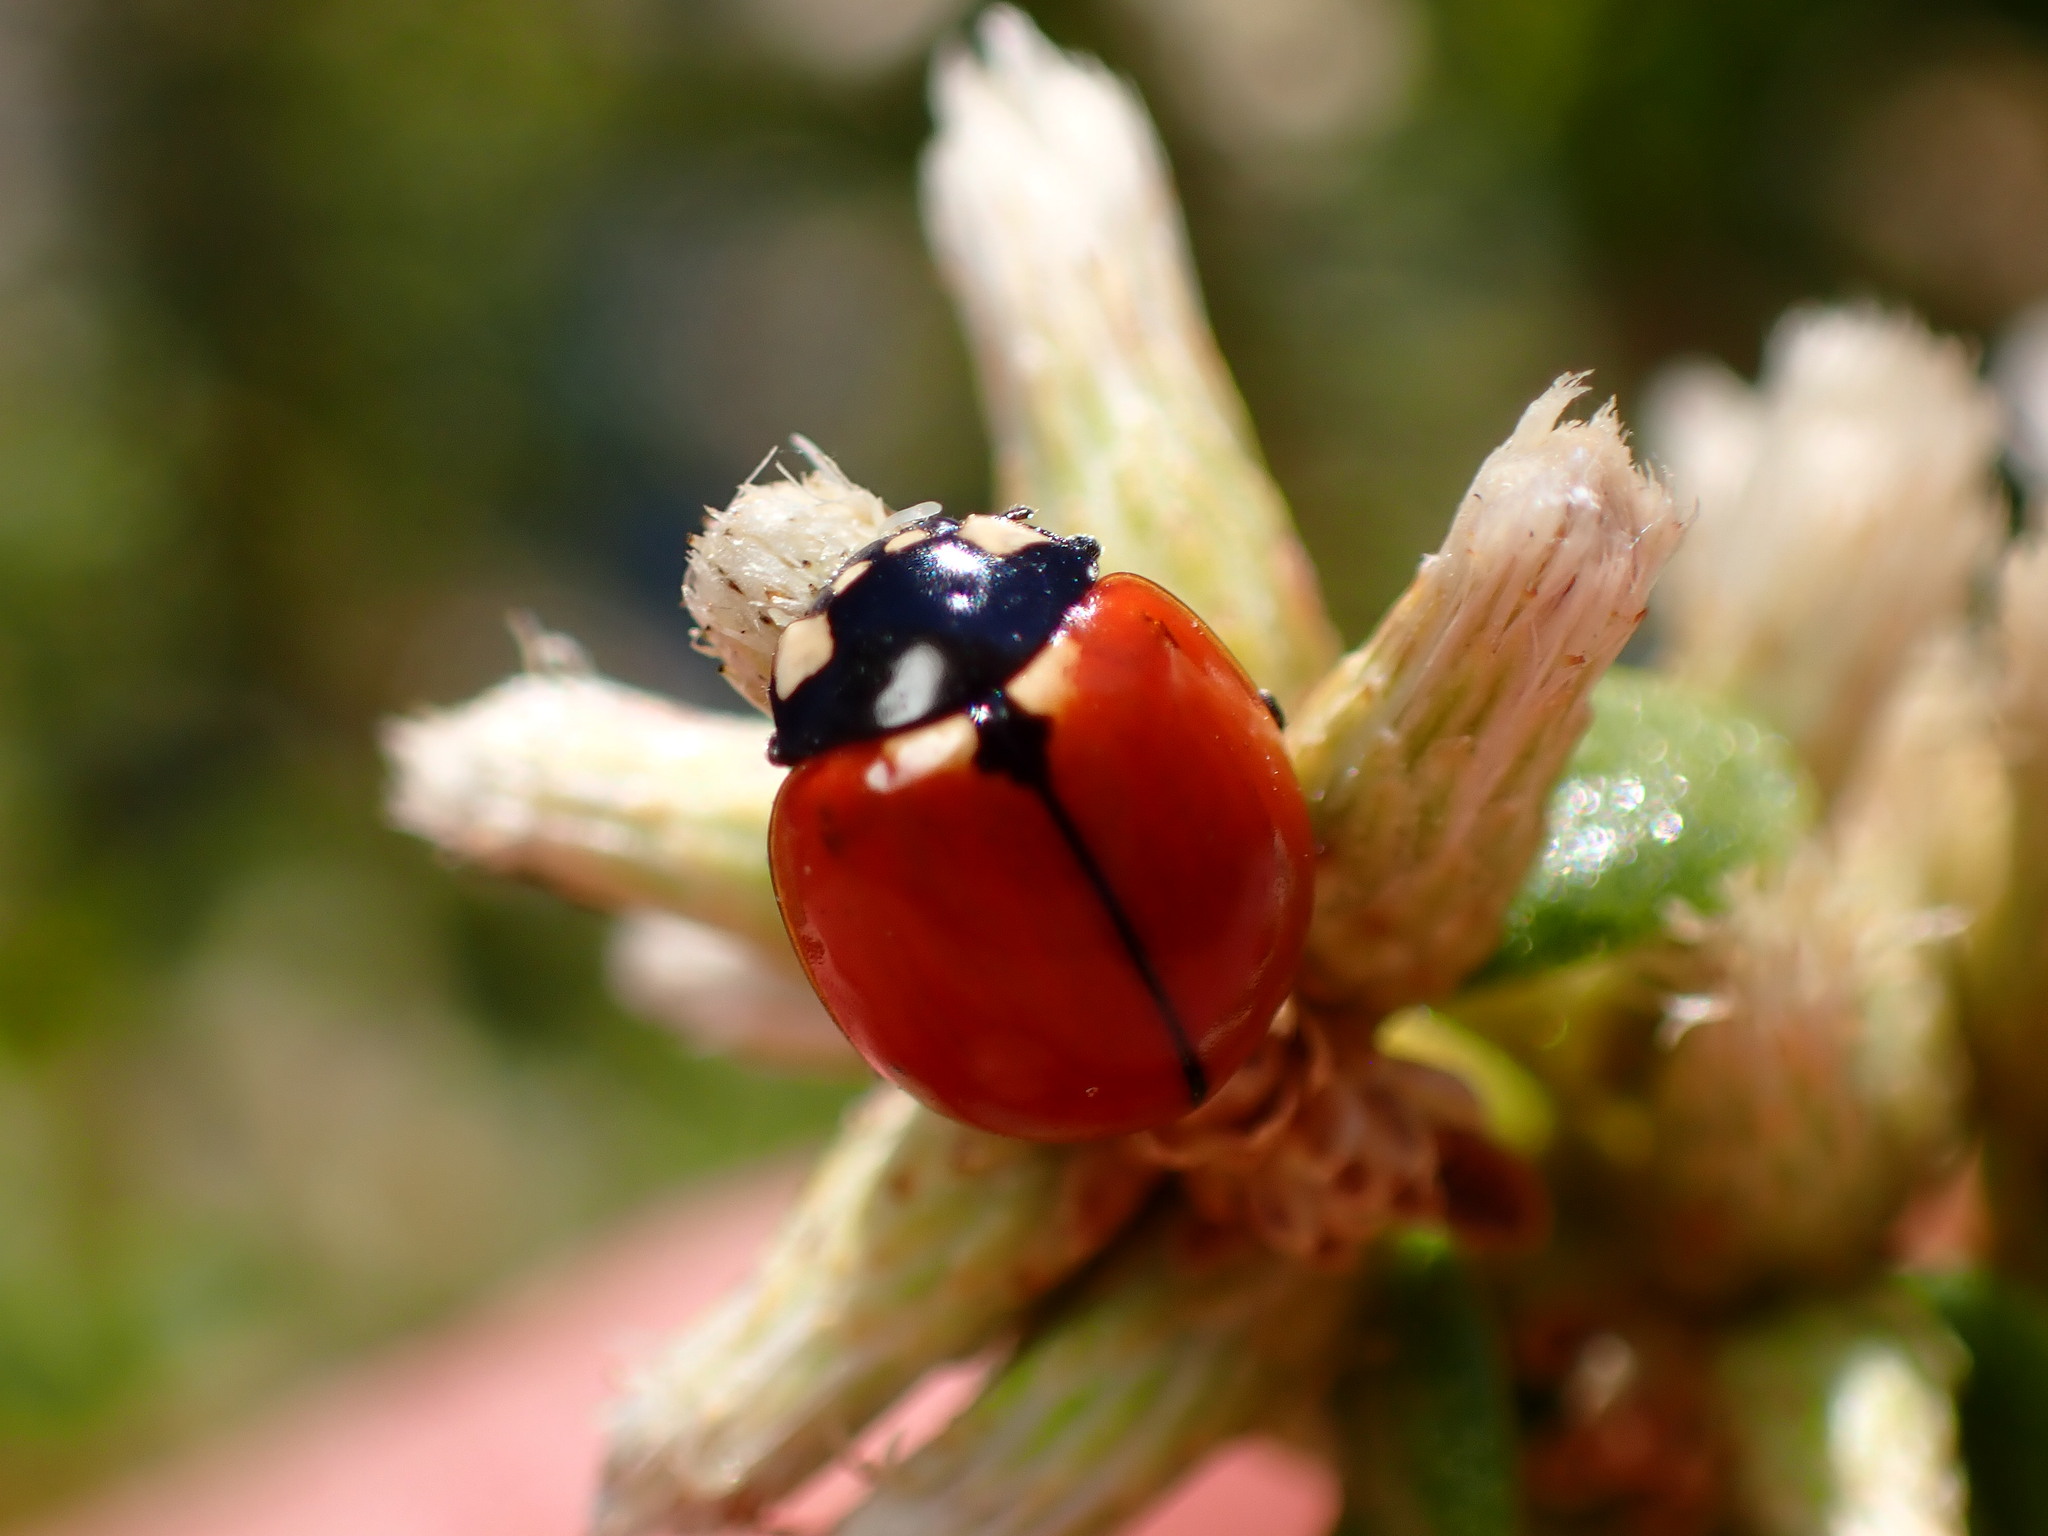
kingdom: Animalia
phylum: Arthropoda
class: Insecta
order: Coleoptera
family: Coccinellidae
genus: Coccinella
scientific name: Coccinella californica
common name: Lady beetle
